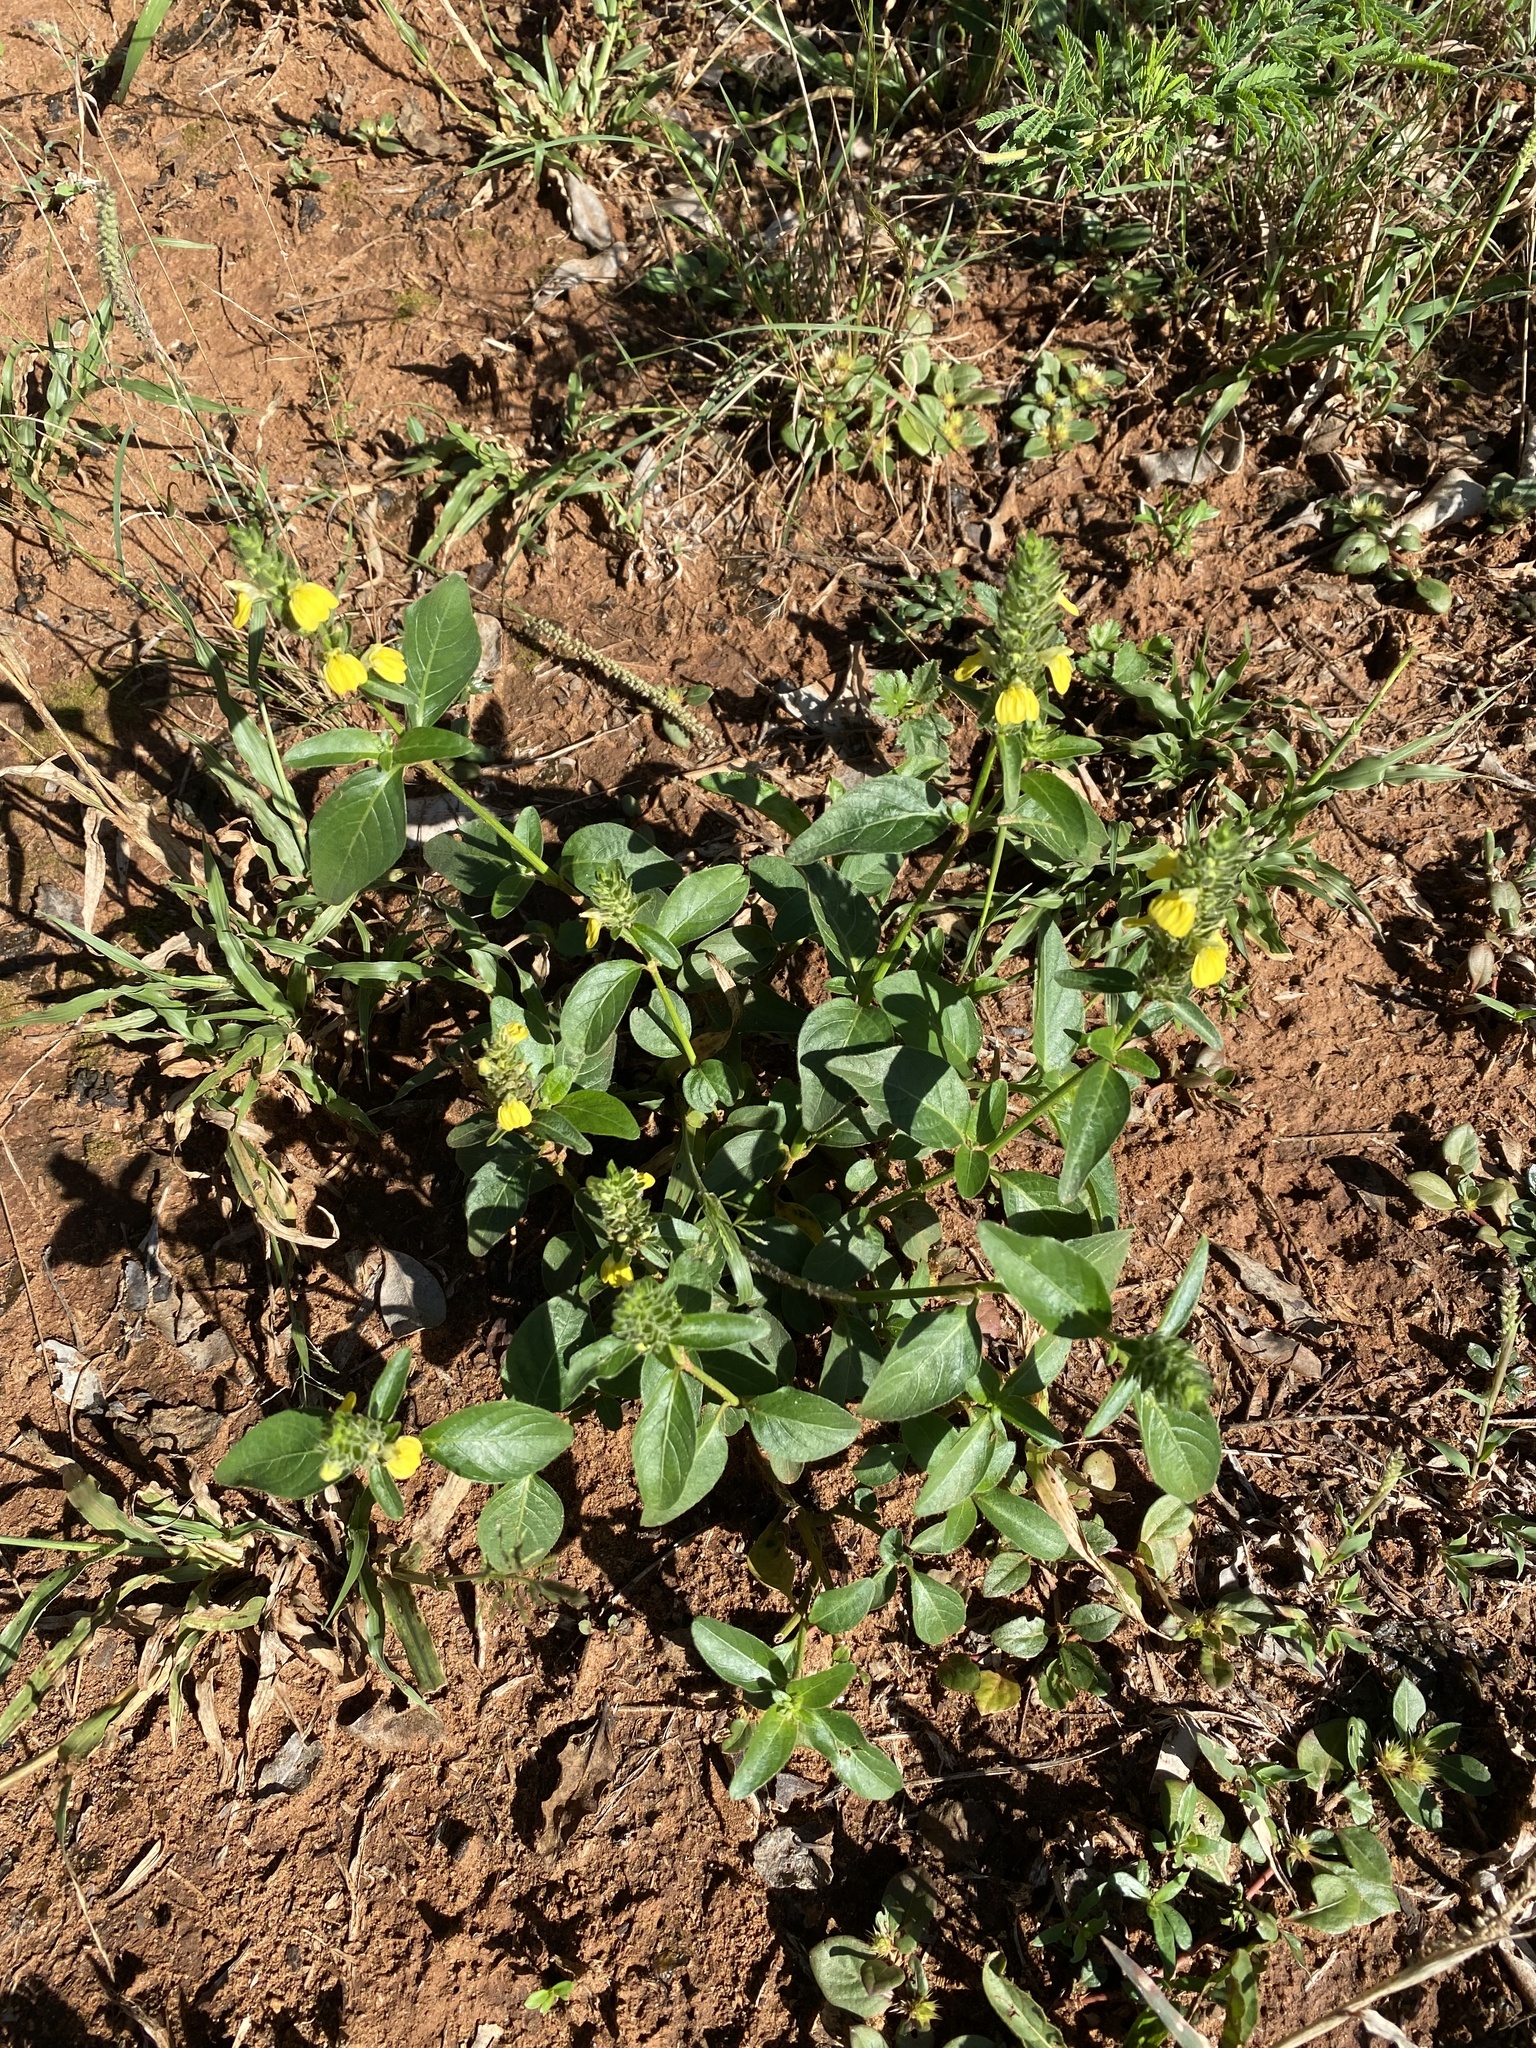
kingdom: Plantae
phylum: Tracheophyta
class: Magnoliopsida
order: Lamiales
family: Acanthaceae
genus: Justicia
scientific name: Justicia flava
